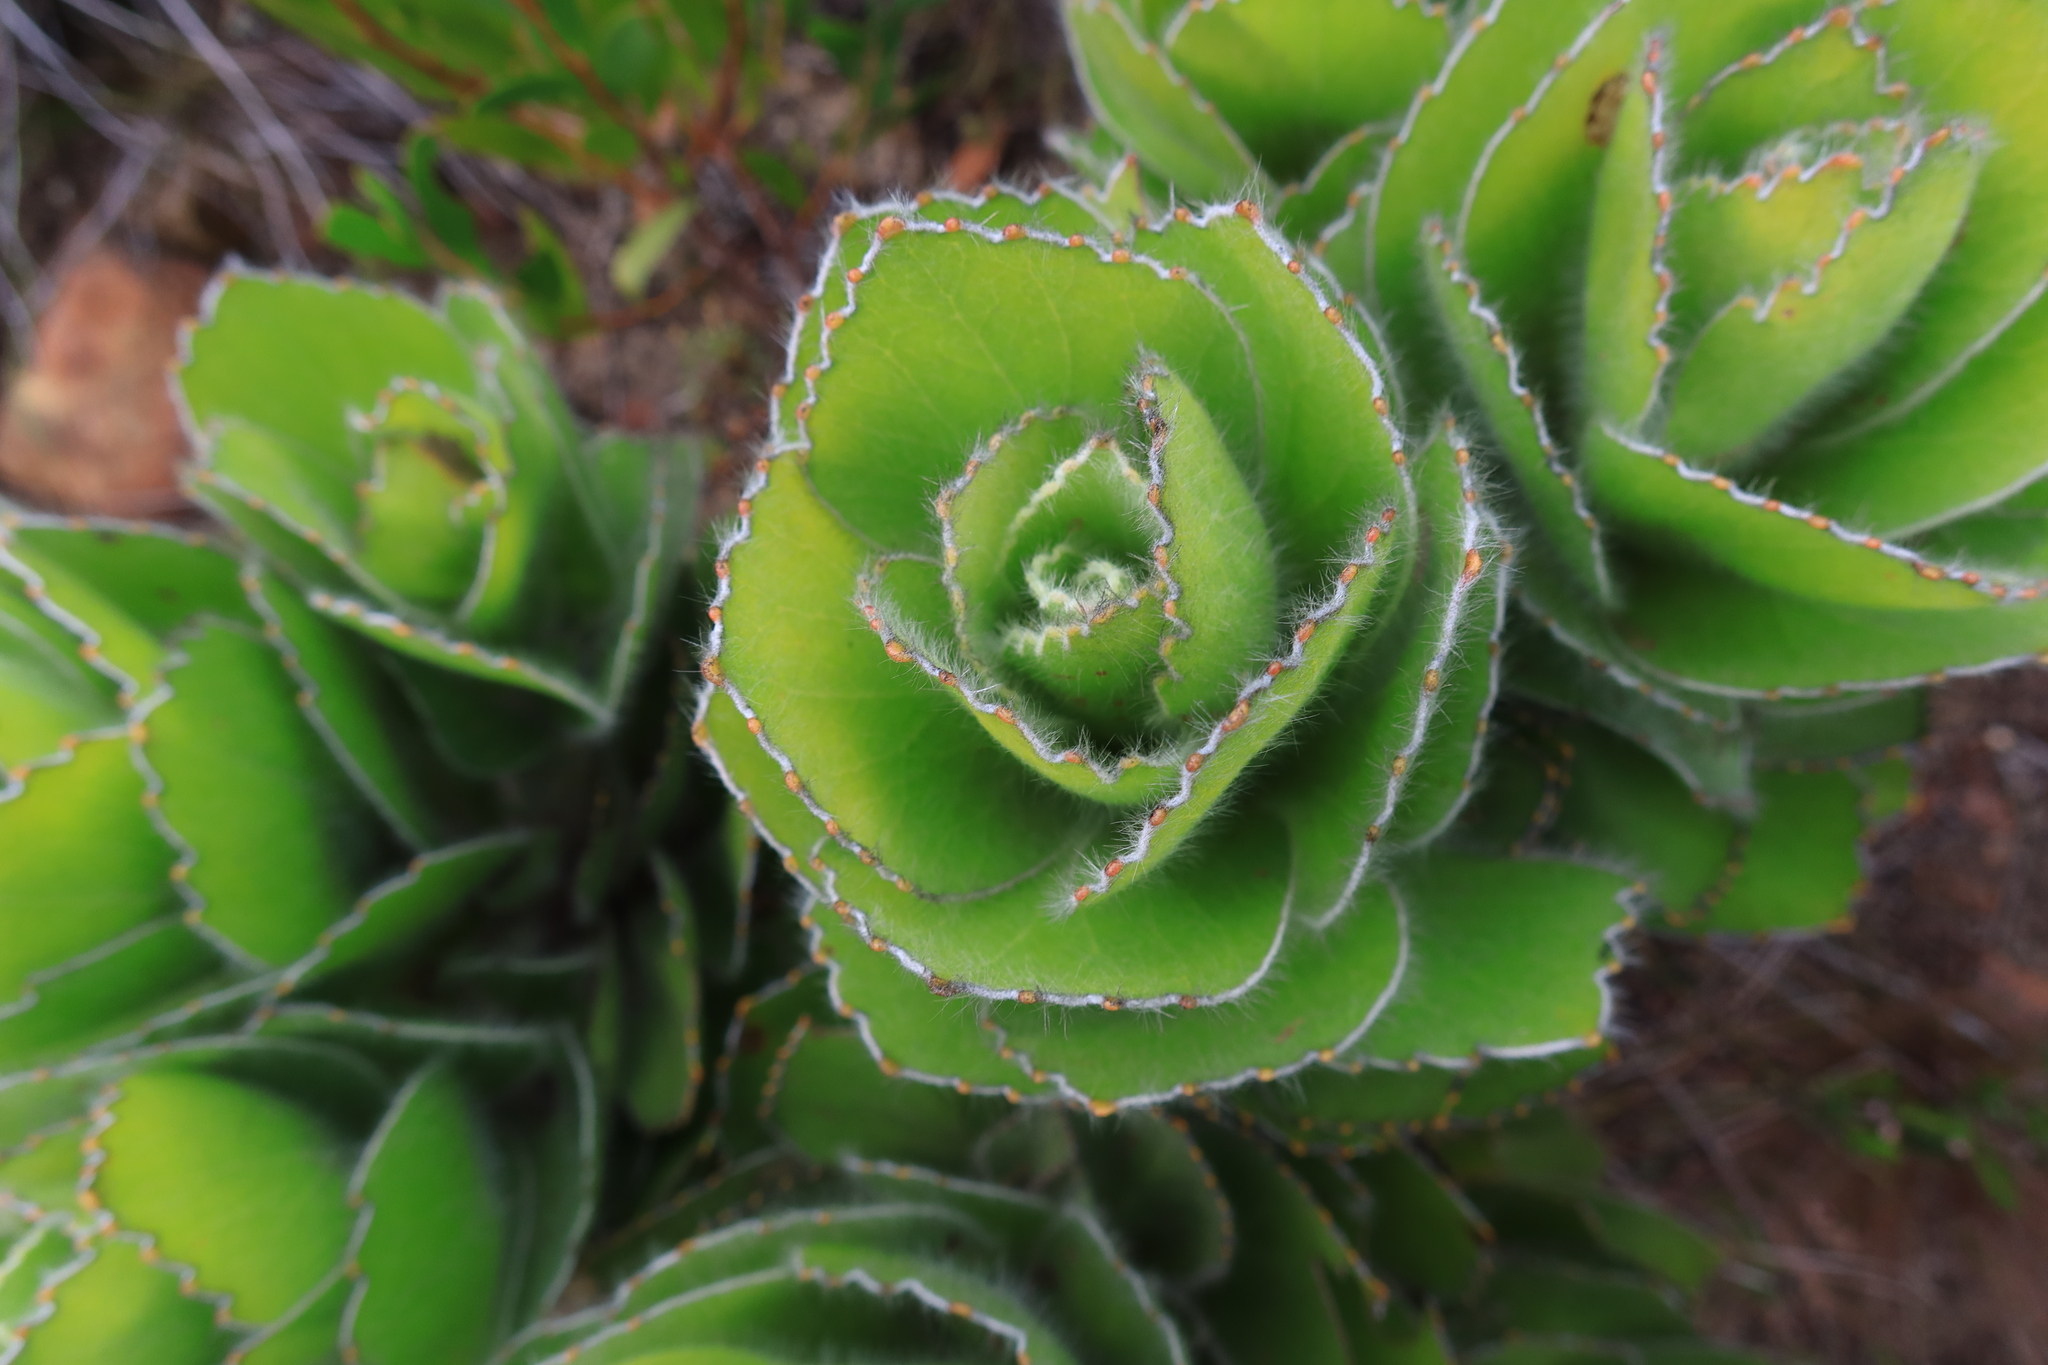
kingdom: Plantae
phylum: Tracheophyta
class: Magnoliopsida
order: Proteales
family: Proteaceae
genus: Leucospermum
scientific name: Leucospermum conocarpodendron
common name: Tree pincushion
